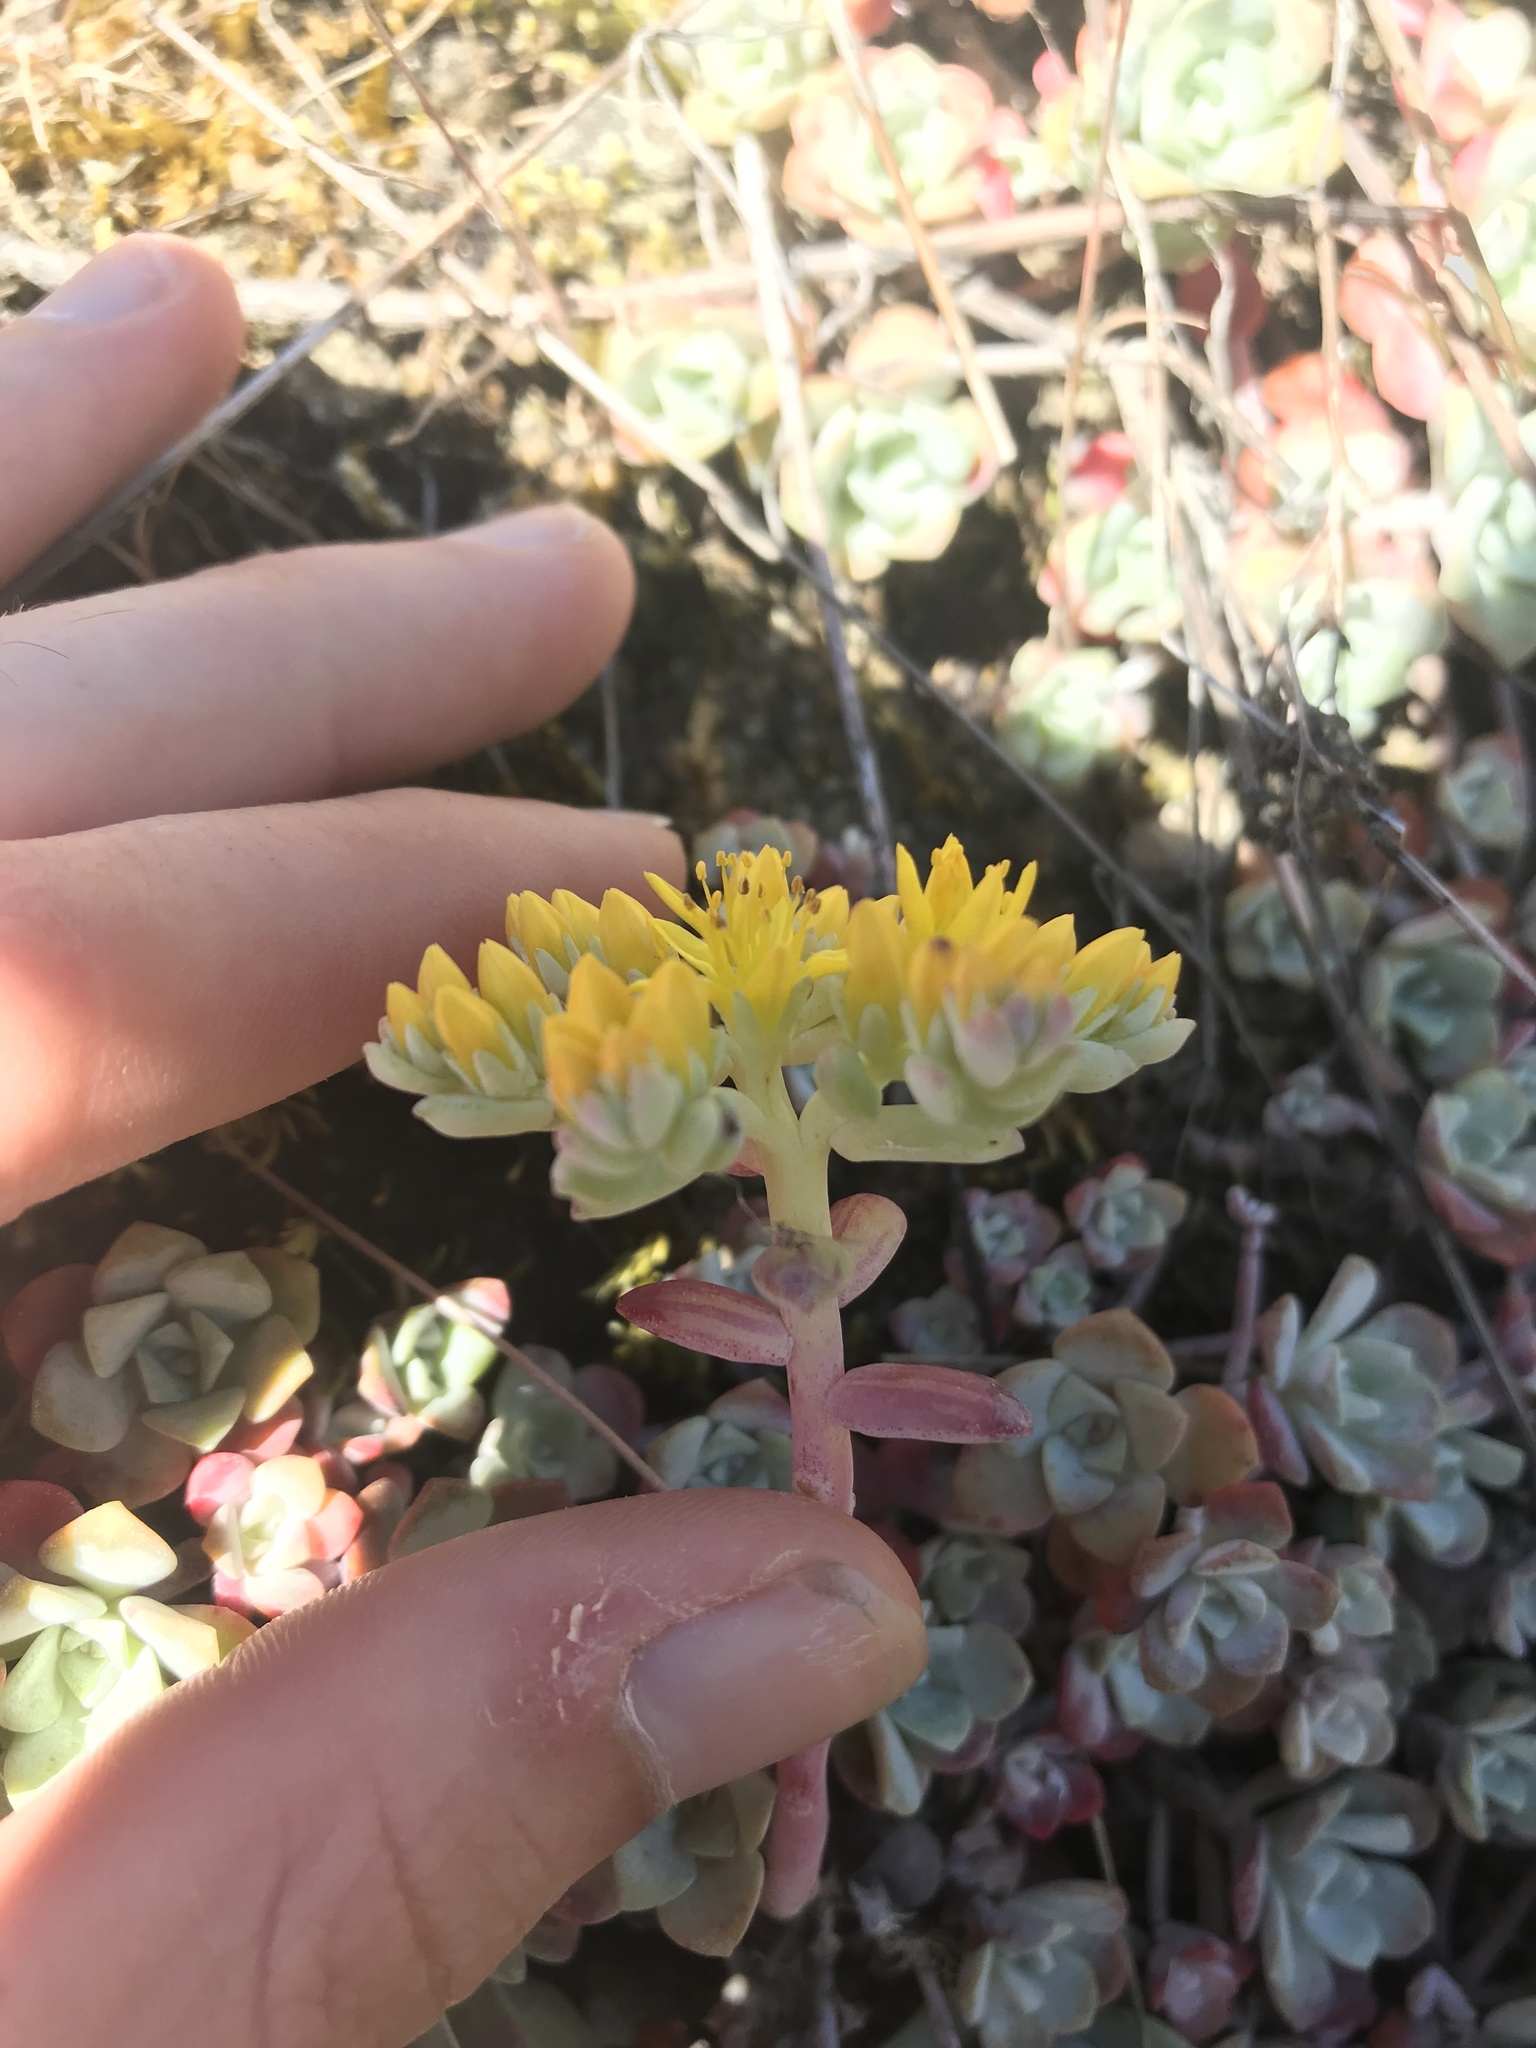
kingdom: Plantae
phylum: Tracheophyta
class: Magnoliopsida
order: Saxifragales
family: Crassulaceae
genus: Sedum
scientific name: Sedum spathulifolium
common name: Colorado stonecrop
